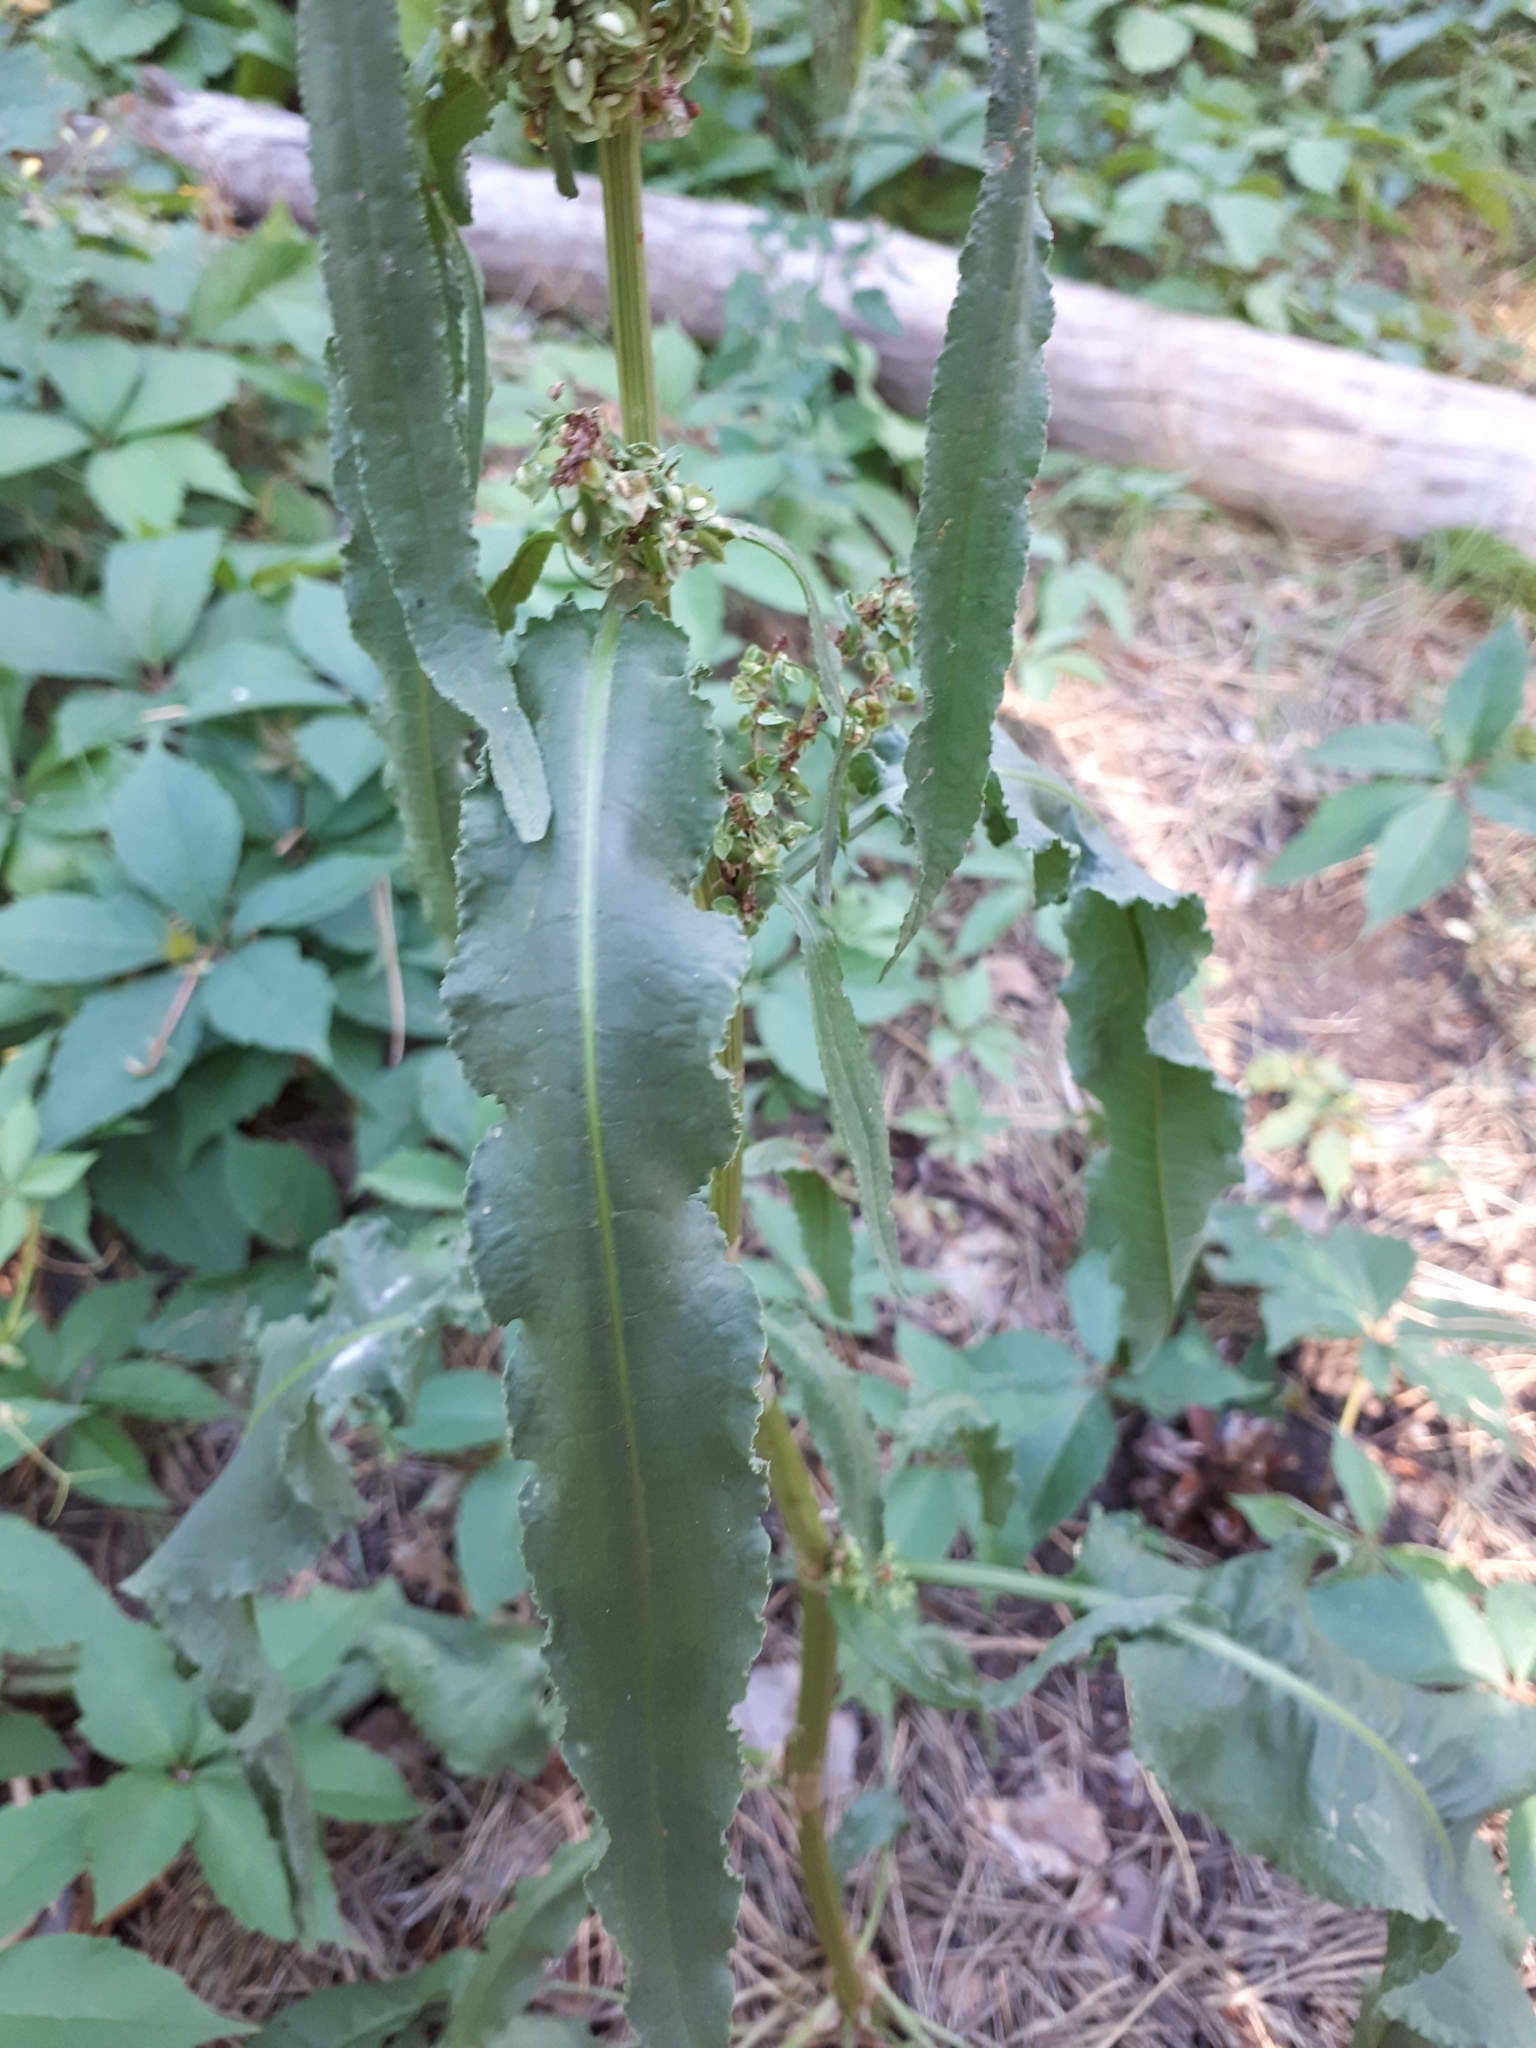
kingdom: Plantae
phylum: Tracheophyta
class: Magnoliopsida
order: Caryophyllales
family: Polygonaceae
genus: Rumex
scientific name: Rumex crispus
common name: Curled dock
